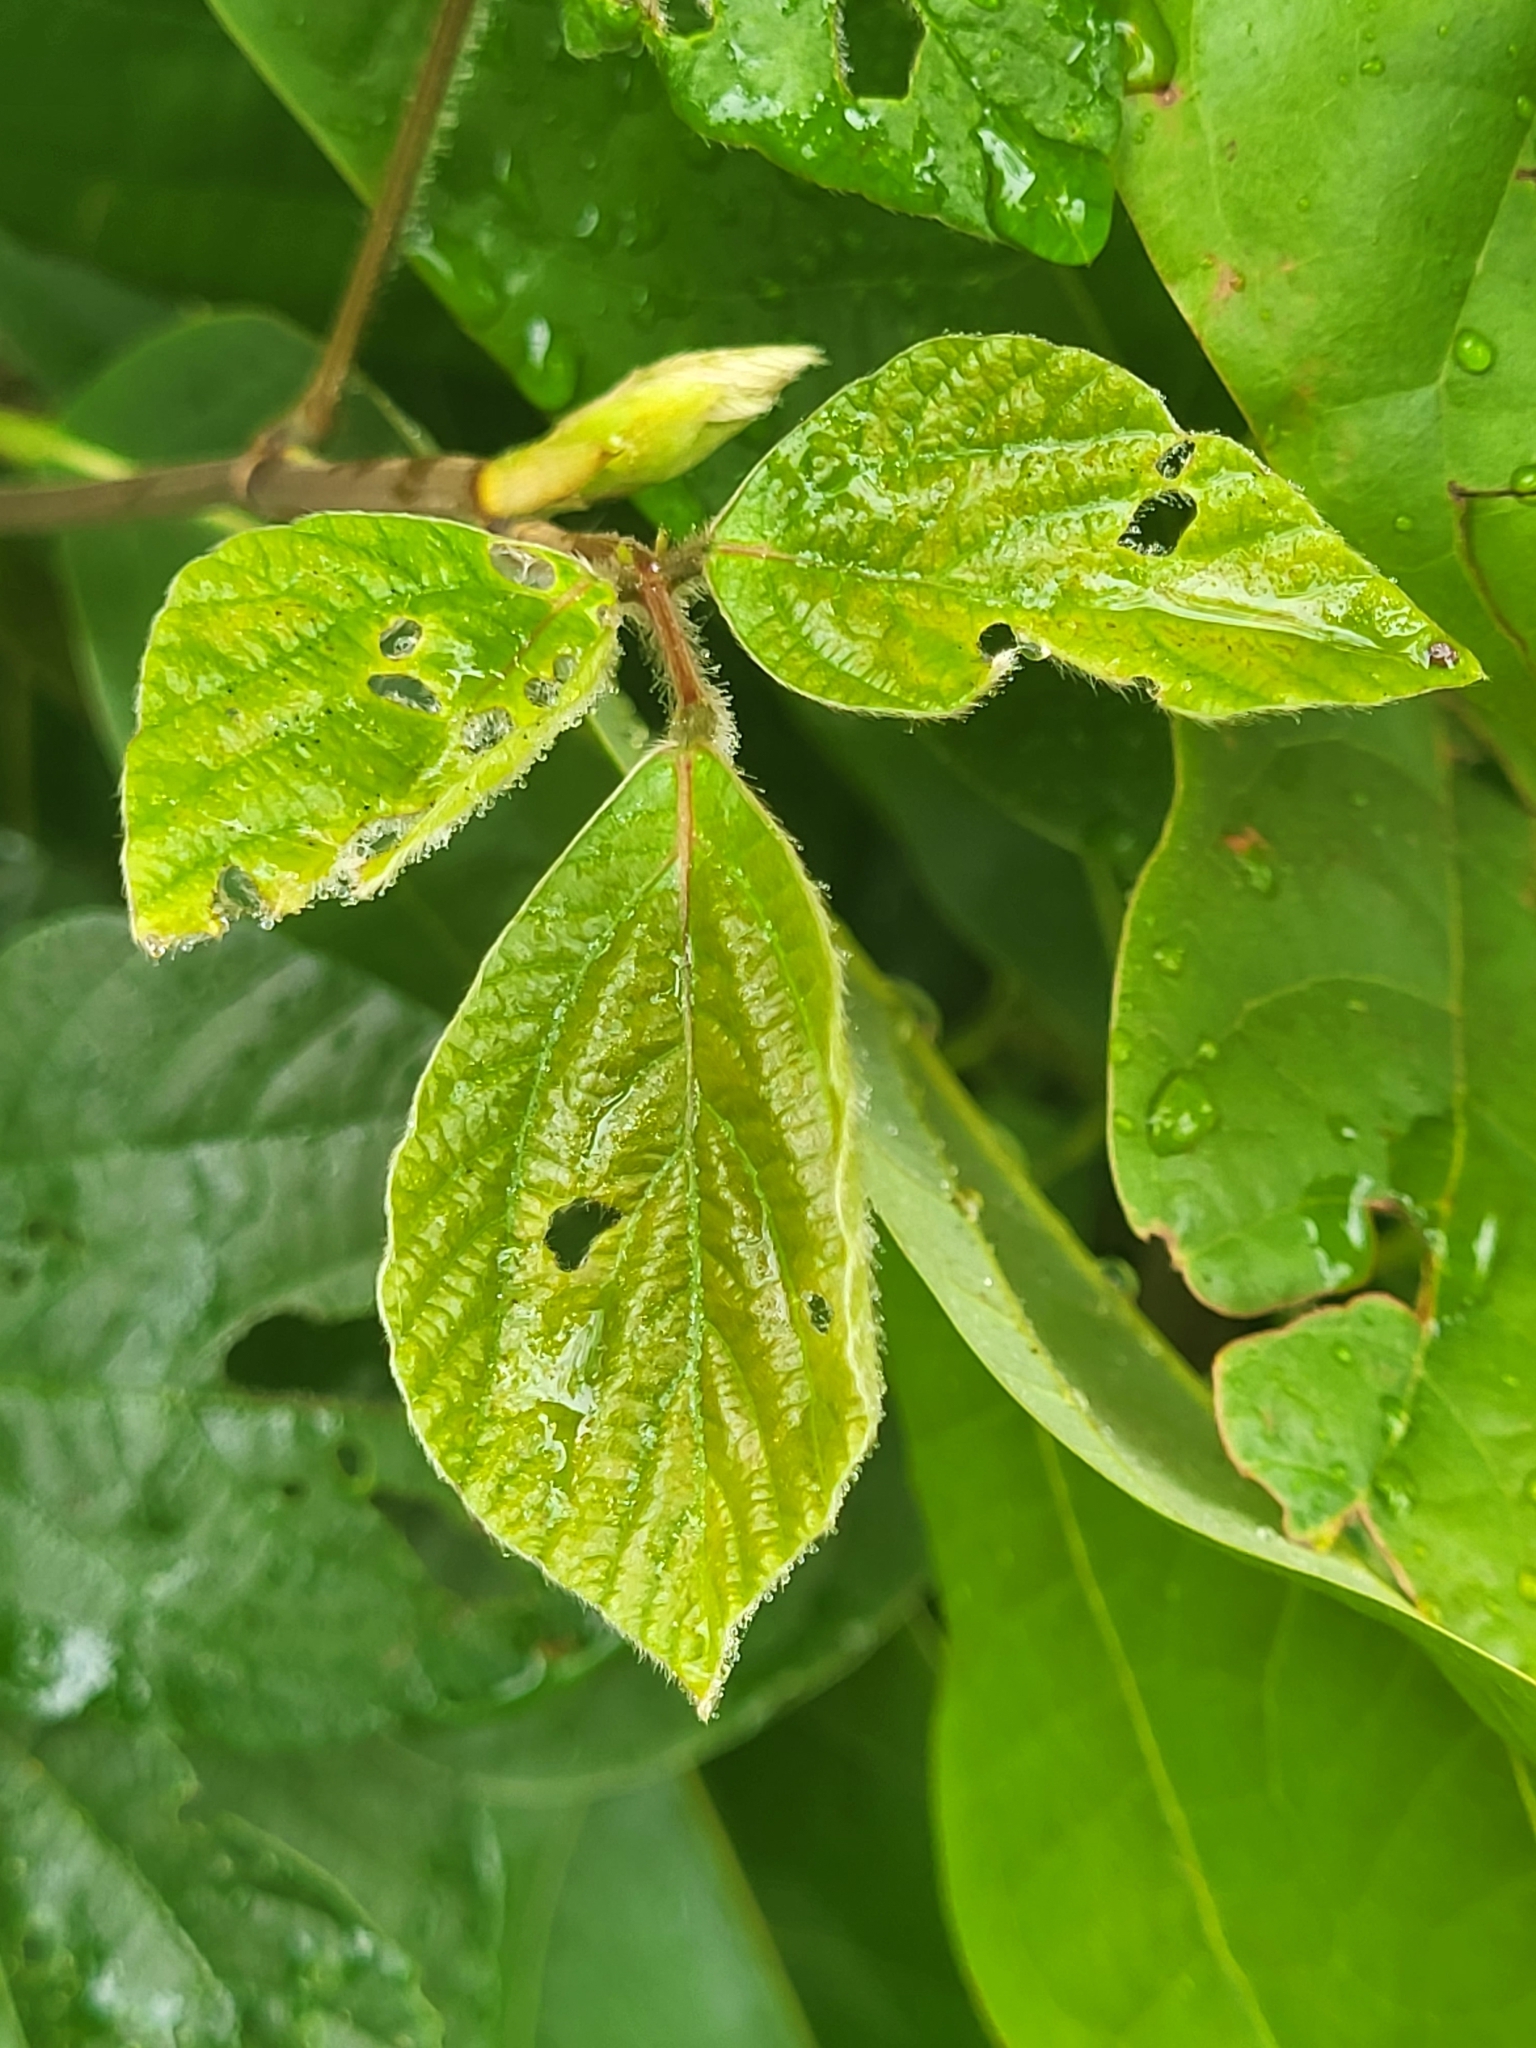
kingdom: Plantae
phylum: Tracheophyta
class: Magnoliopsida
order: Fabales
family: Fabaceae
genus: Hylodesmum
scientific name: Hylodesmum repandum
